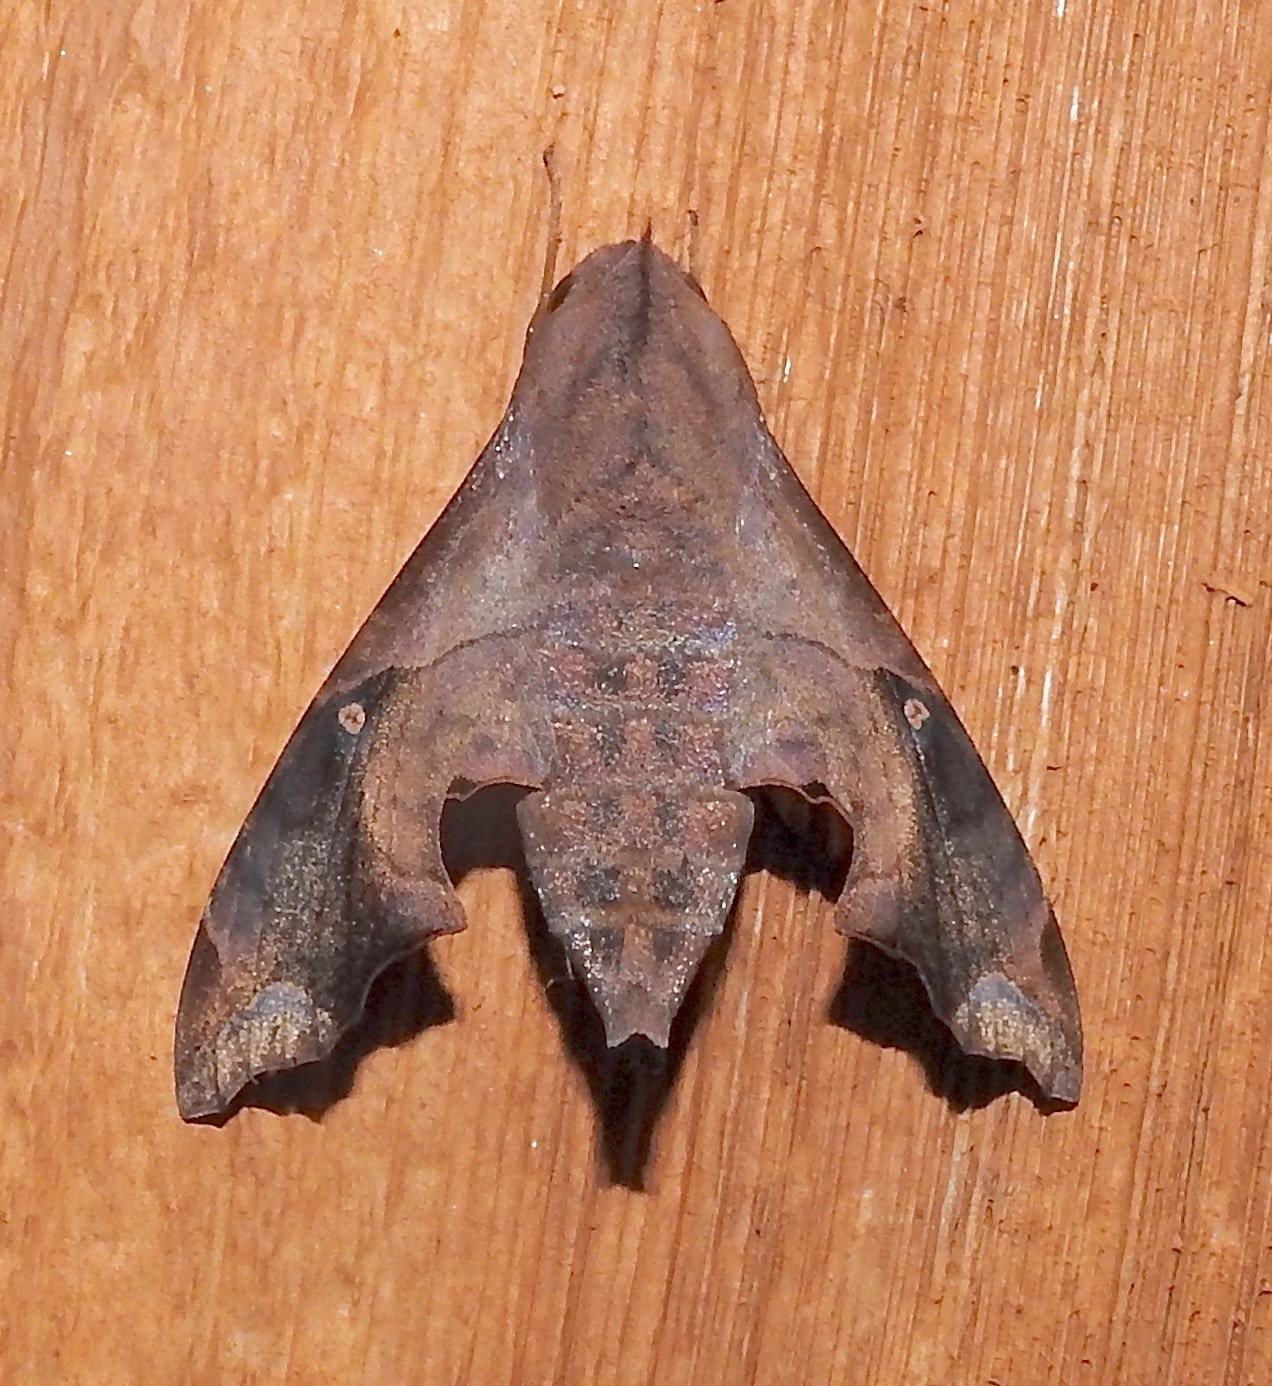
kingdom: Animalia
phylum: Arthropoda
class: Insecta
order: Lepidoptera
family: Sphingidae
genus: Enyo
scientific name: Enyo lugubris
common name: Mournful sphinx
